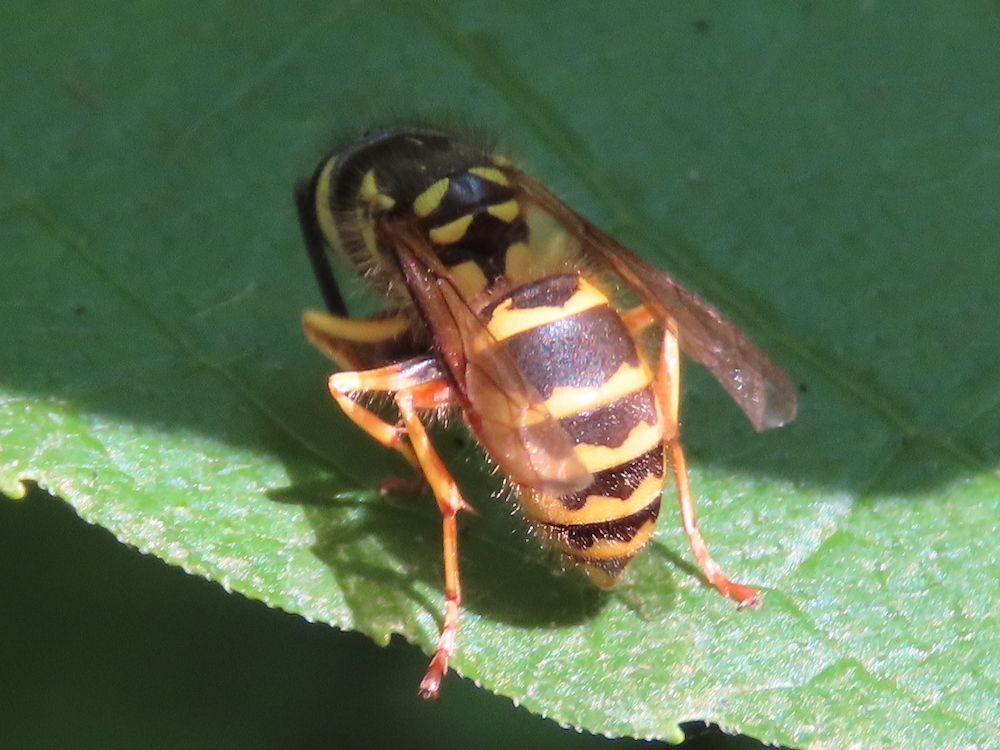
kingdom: Animalia
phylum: Arthropoda
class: Insecta
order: Hymenoptera
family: Vespidae
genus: Vespula
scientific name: Vespula flavopilosa
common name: Downy yellowjacket
